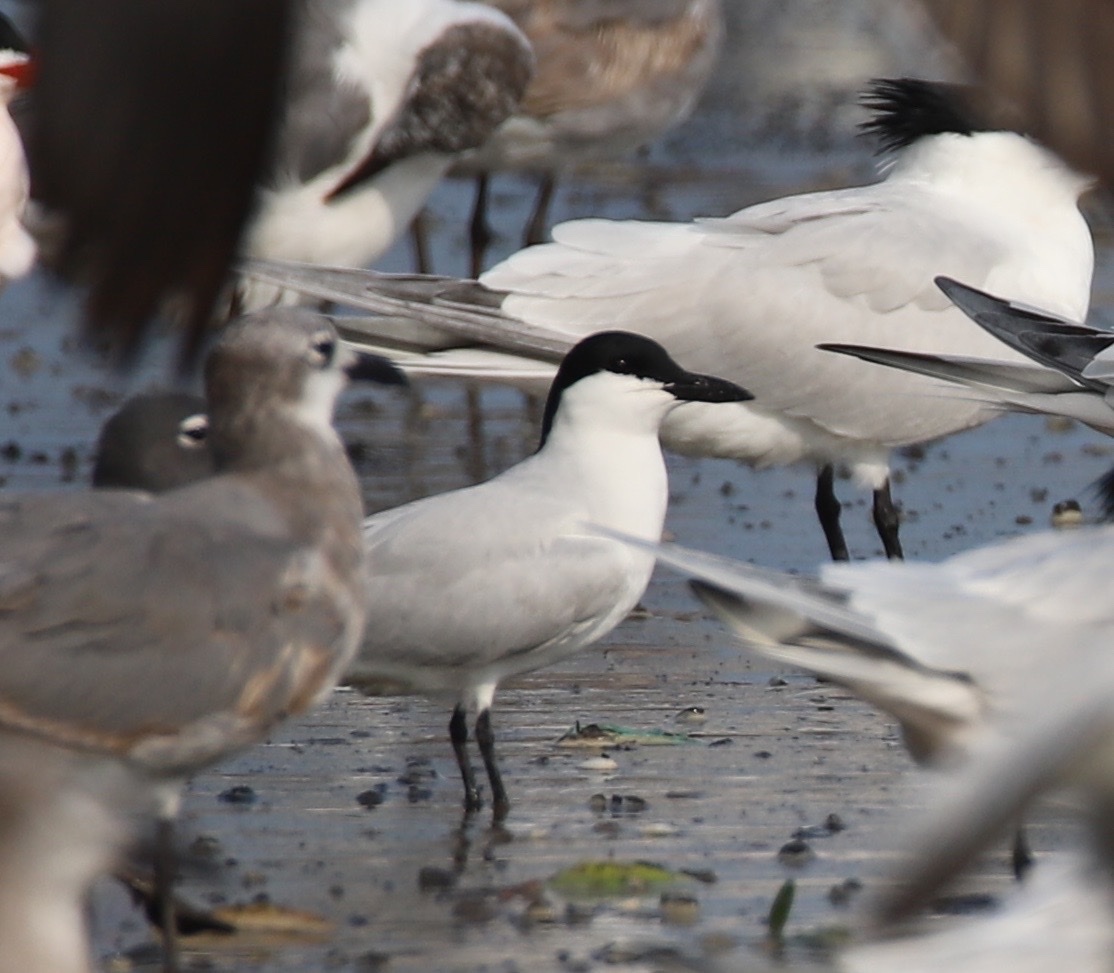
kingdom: Animalia
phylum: Chordata
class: Aves
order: Charadriiformes
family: Laridae
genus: Gelochelidon
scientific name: Gelochelidon nilotica
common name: Gull-billed tern
